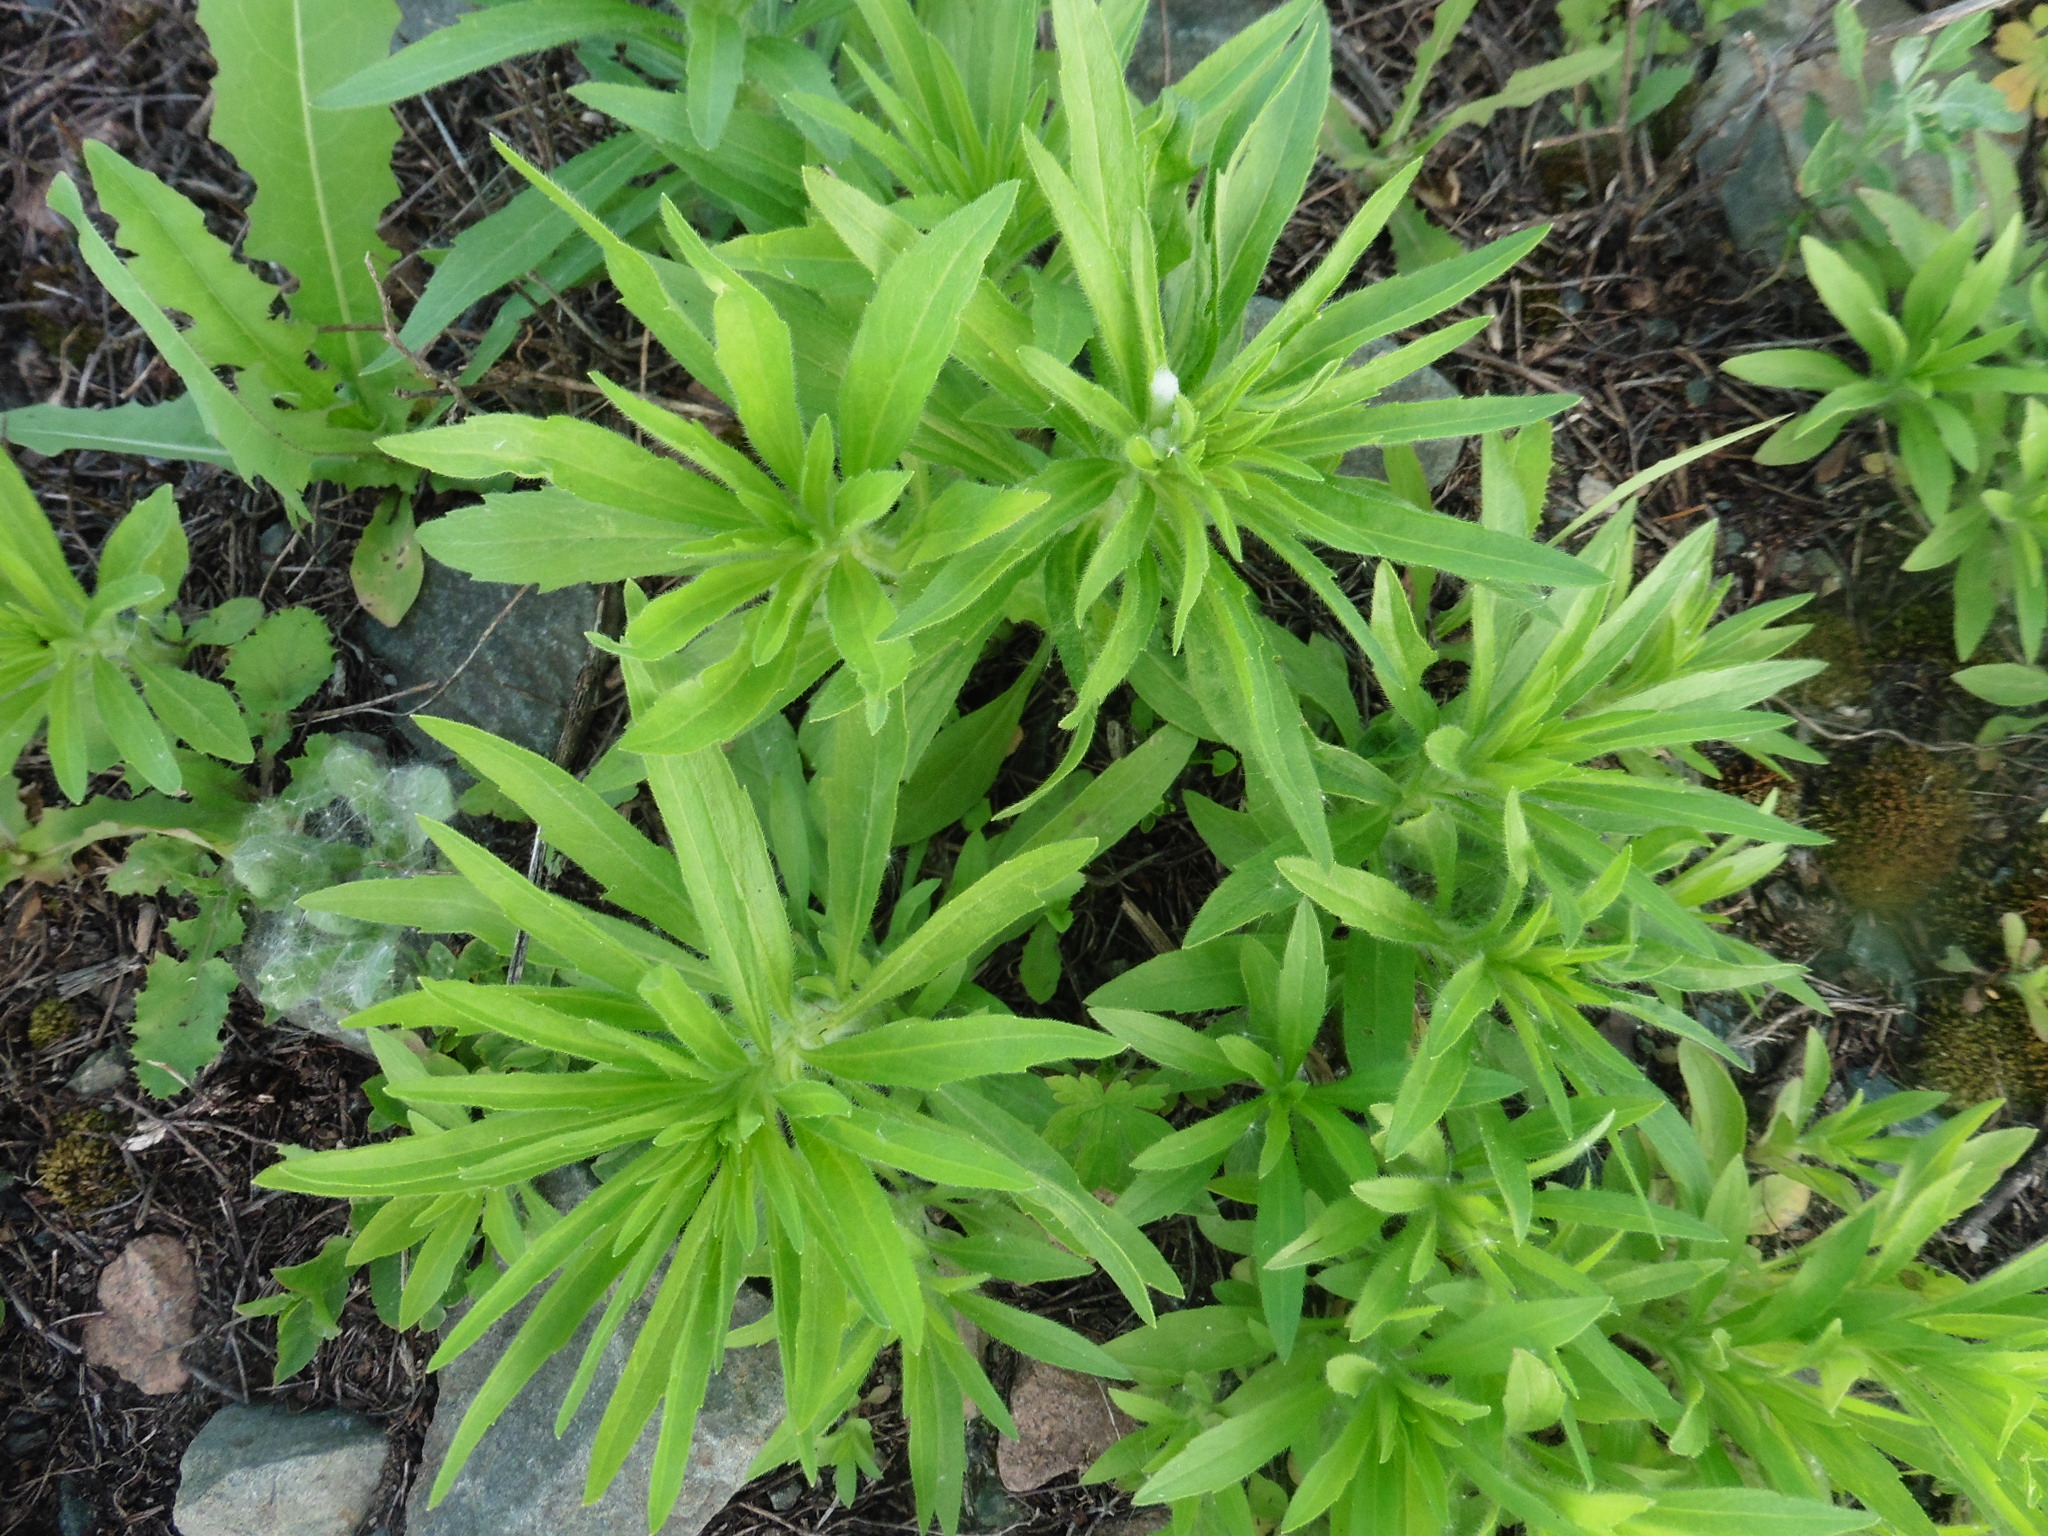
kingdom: Plantae
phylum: Tracheophyta
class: Magnoliopsida
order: Asterales
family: Asteraceae
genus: Erigeron
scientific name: Erigeron canadensis
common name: Canadian fleabane
